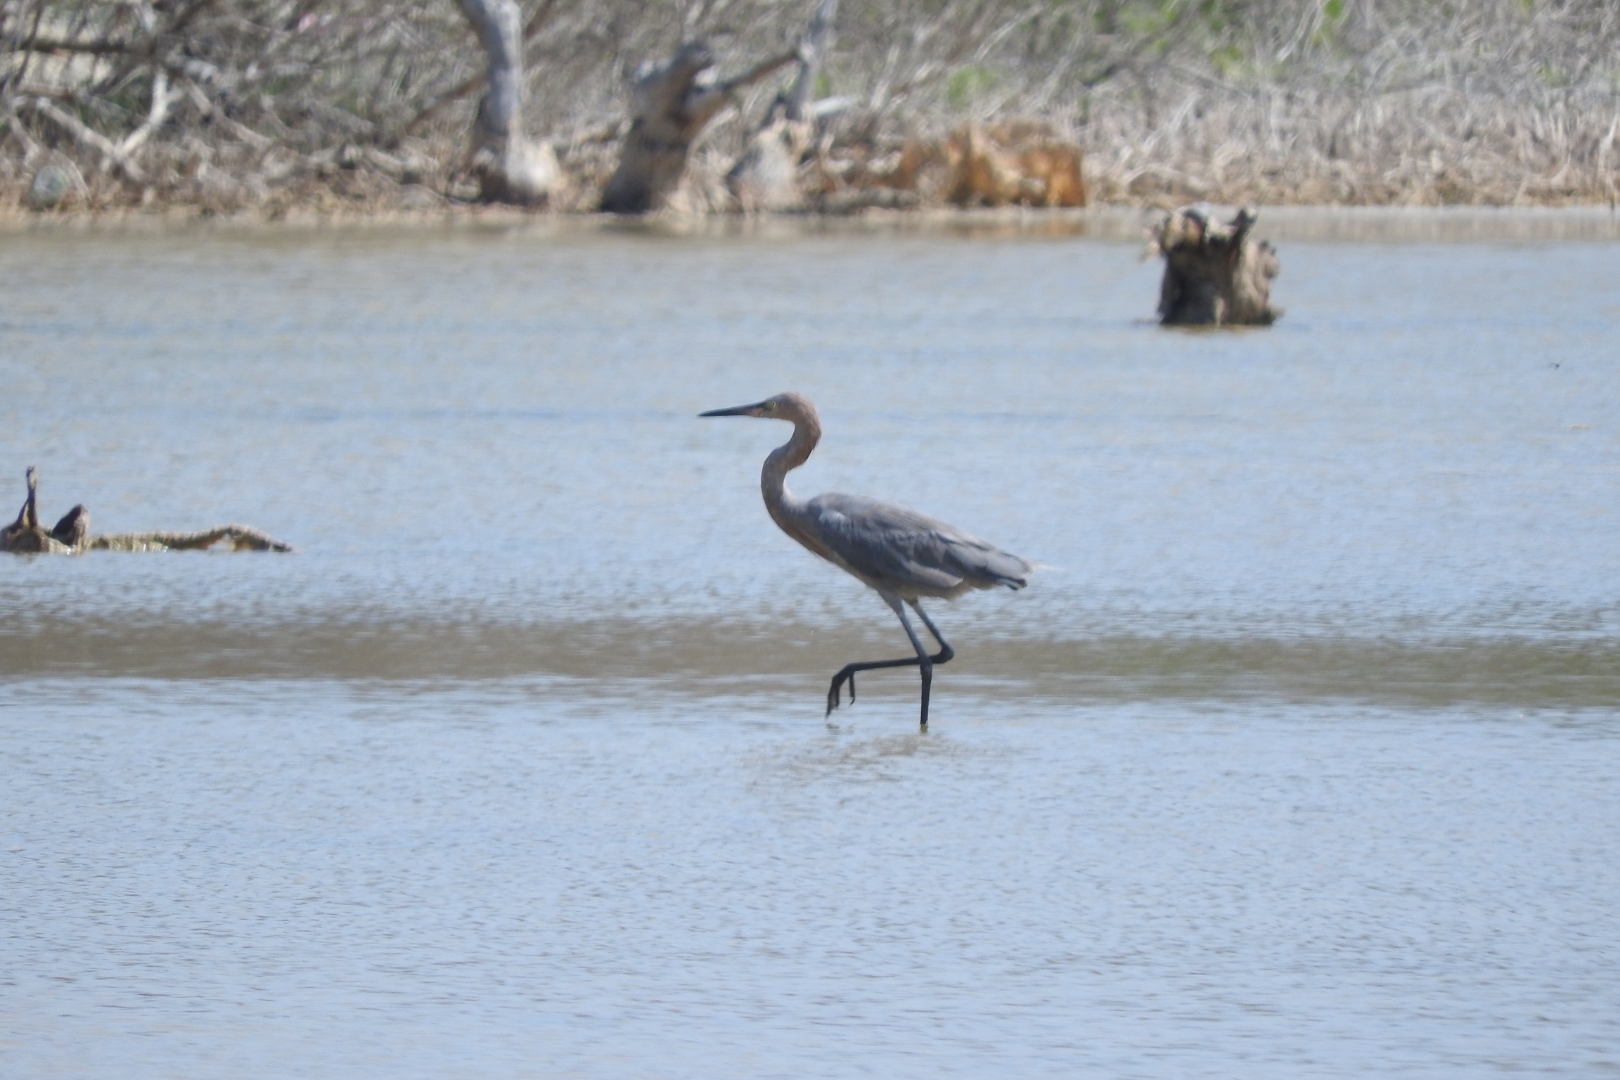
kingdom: Animalia
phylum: Chordata
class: Aves
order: Pelecaniformes
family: Ardeidae
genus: Egretta
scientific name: Egretta rufescens
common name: Reddish egret
